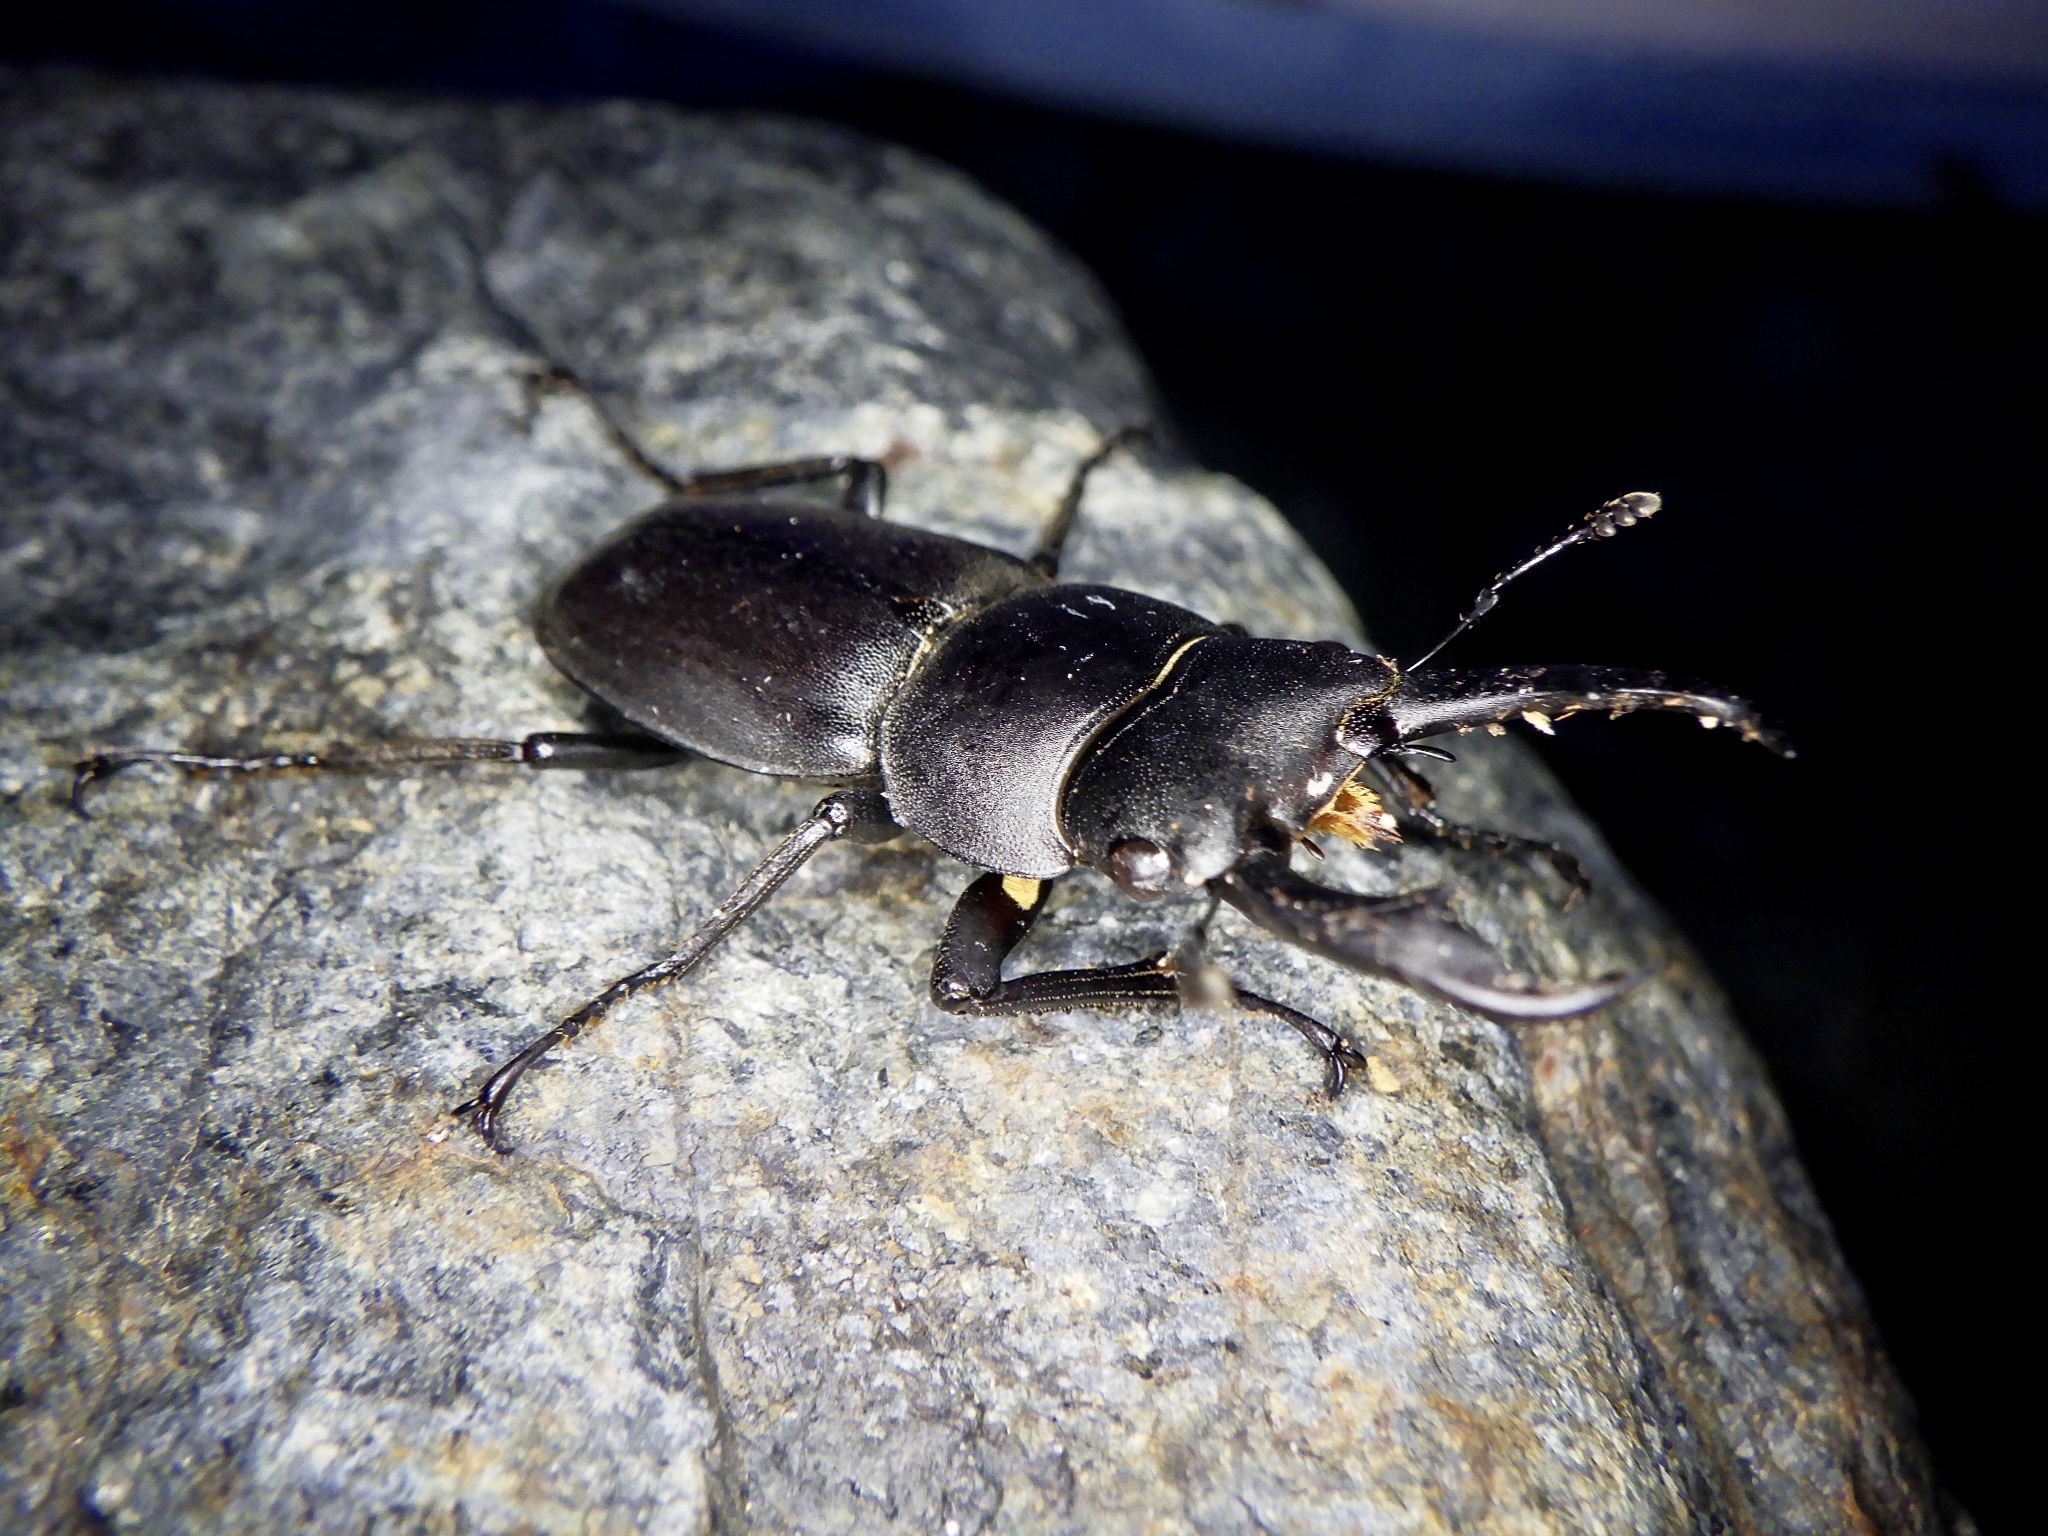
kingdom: Animalia
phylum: Arthropoda
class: Insecta
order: Coleoptera
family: Lucanidae
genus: Dorcus
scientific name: Dorcus rectus
